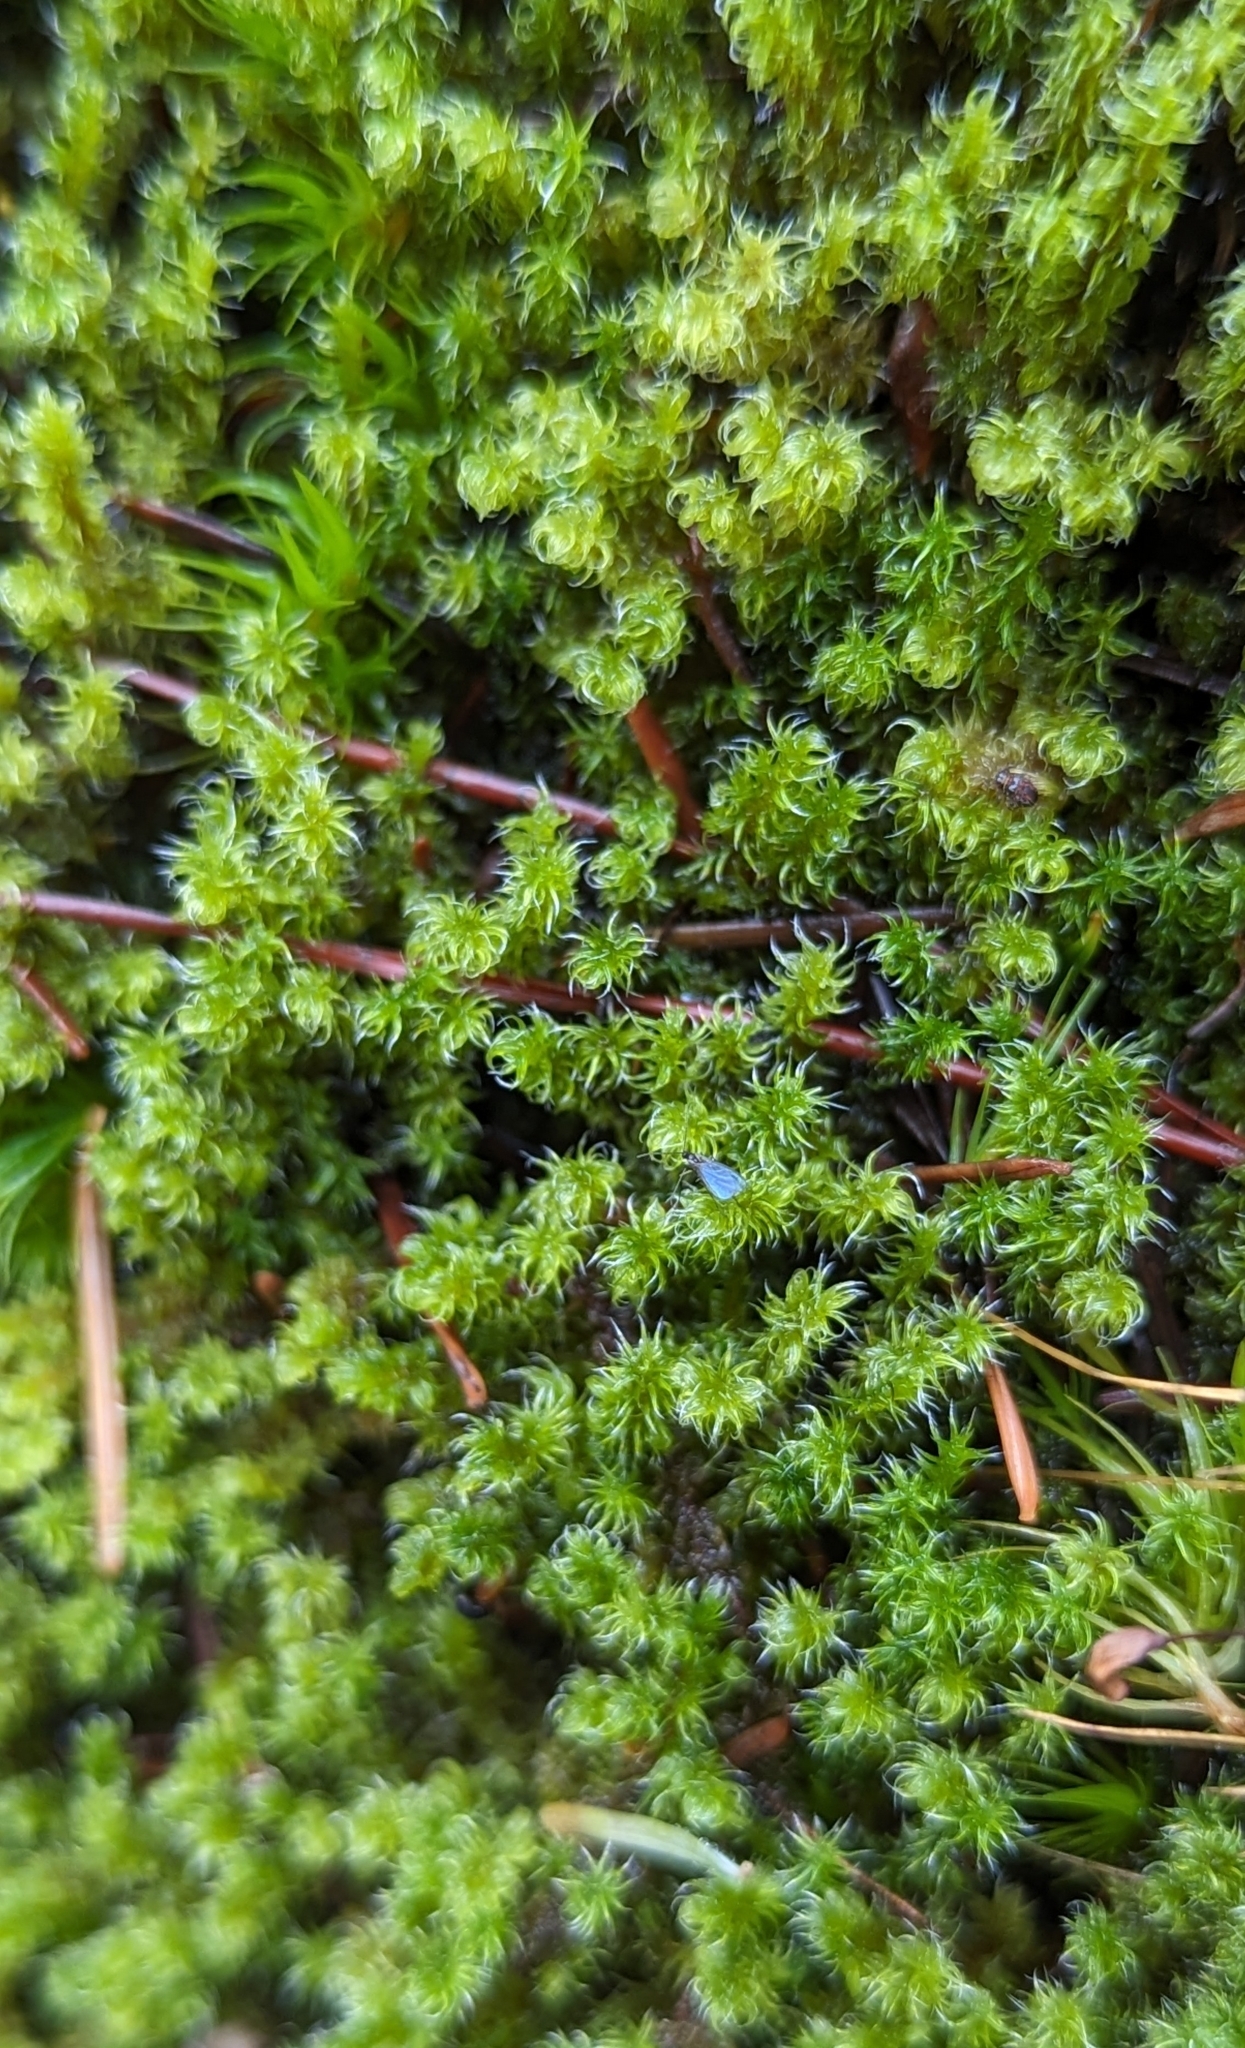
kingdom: Plantae
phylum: Bryophyta
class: Bryopsida
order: Grimmiales
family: Grimmiaceae
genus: Niphotrichum
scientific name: Niphotrichum elongatum
